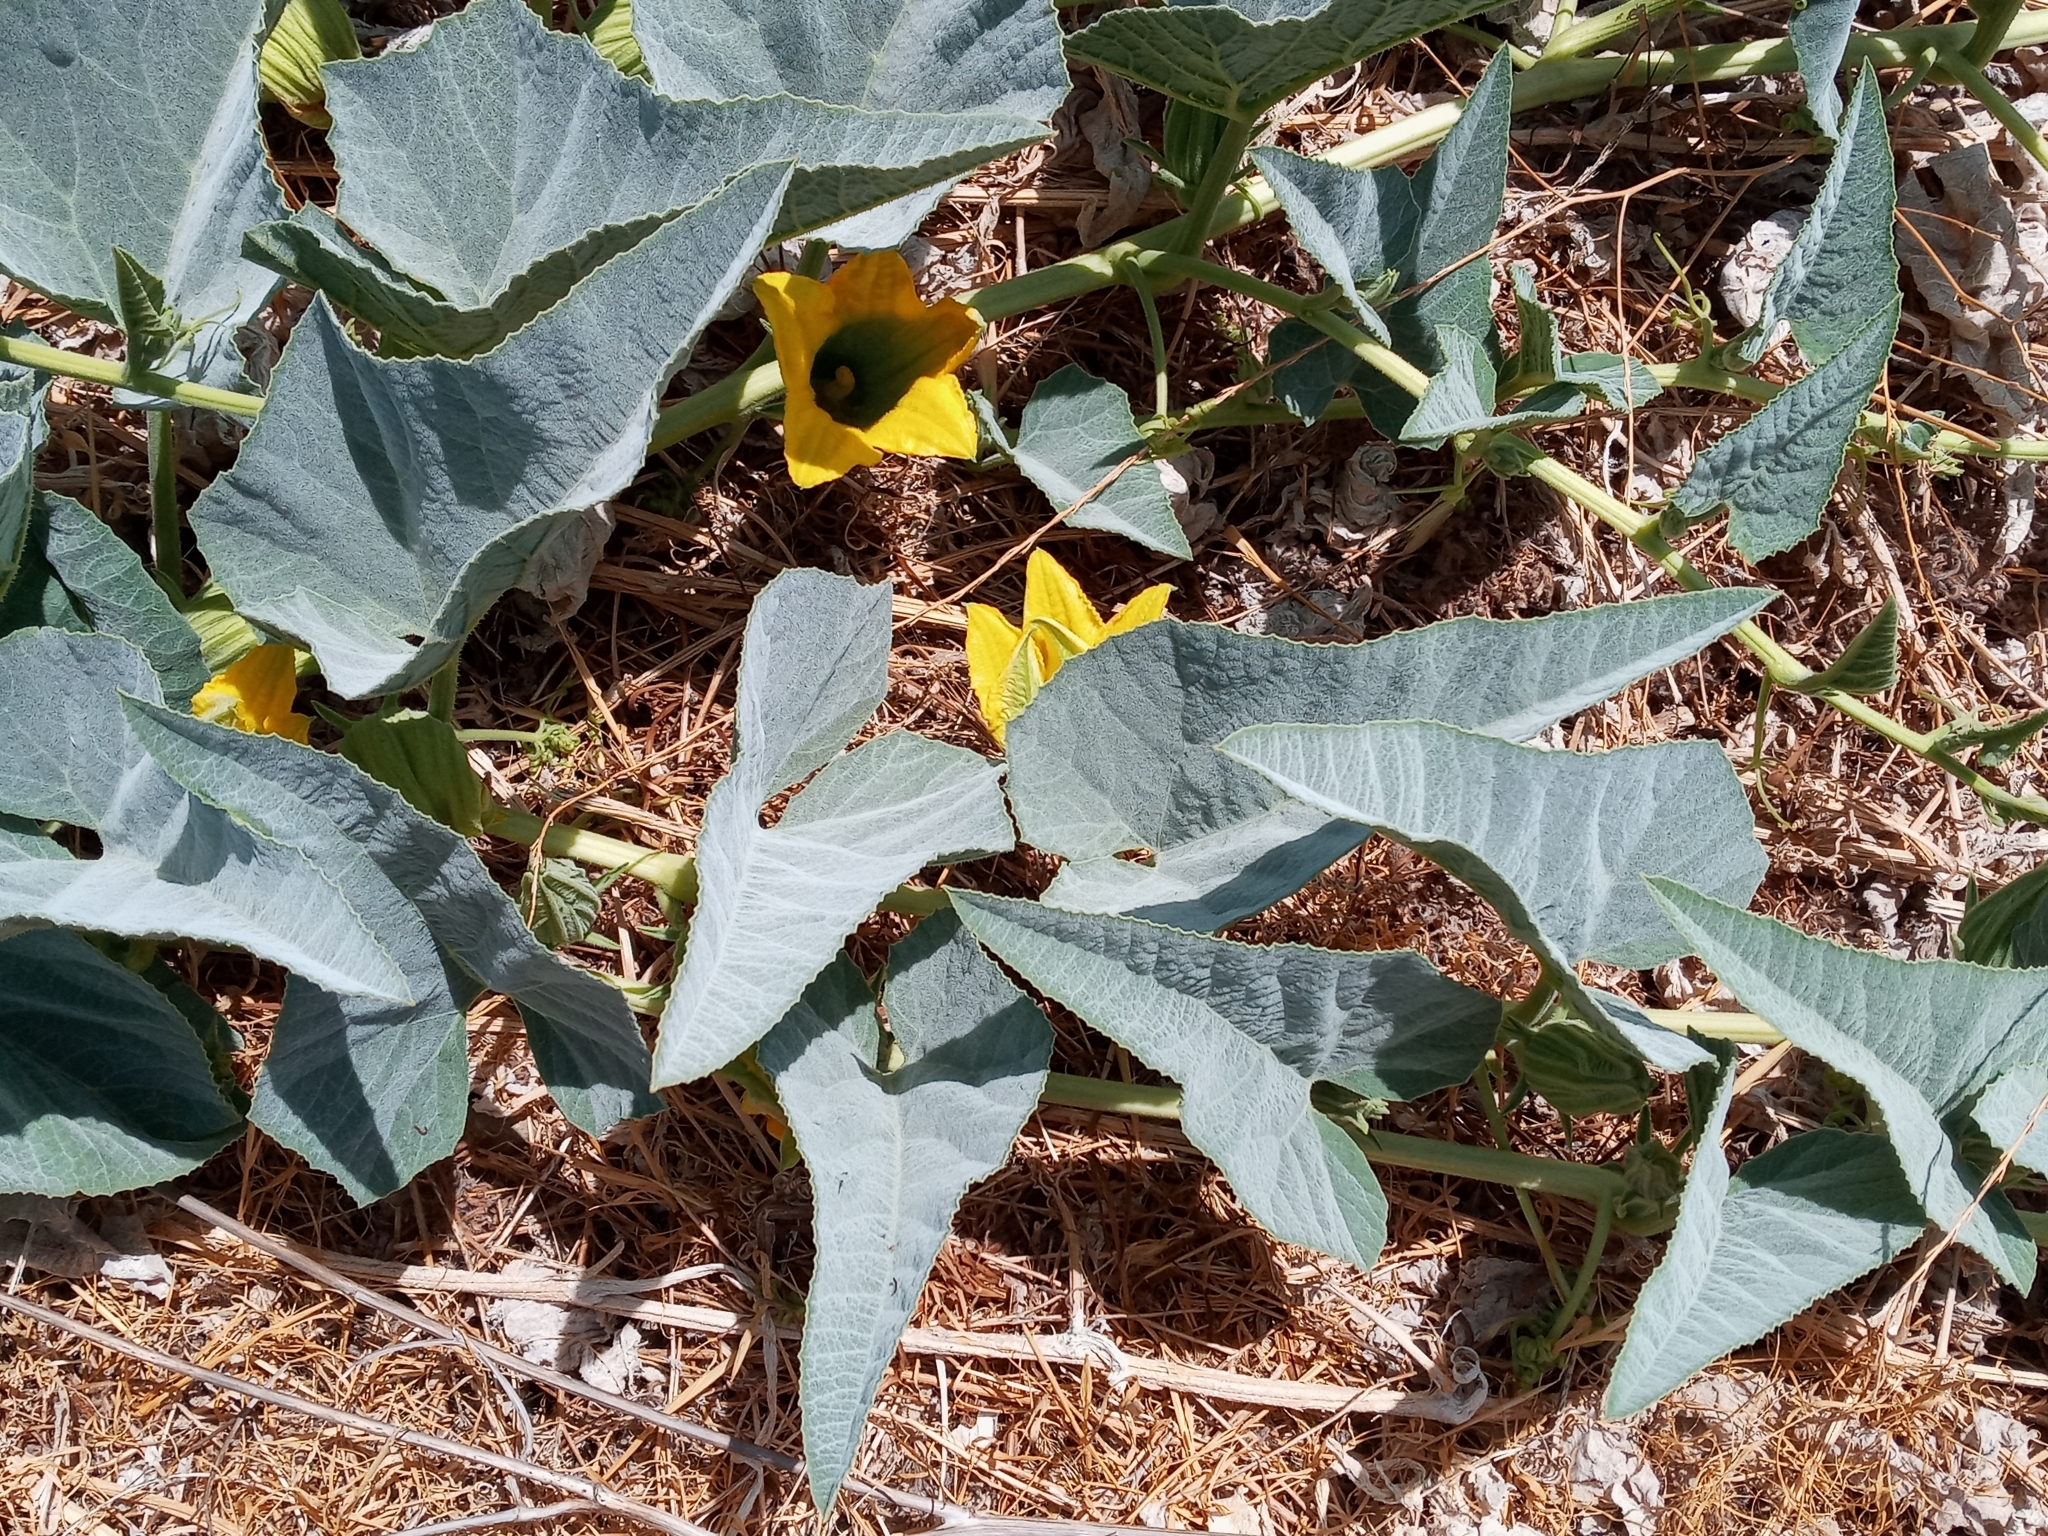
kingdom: Plantae
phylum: Tracheophyta
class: Magnoliopsida
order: Cucurbitales
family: Cucurbitaceae
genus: Cucurbita
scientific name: Cucurbita foetidissima
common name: Buffalo gourd
